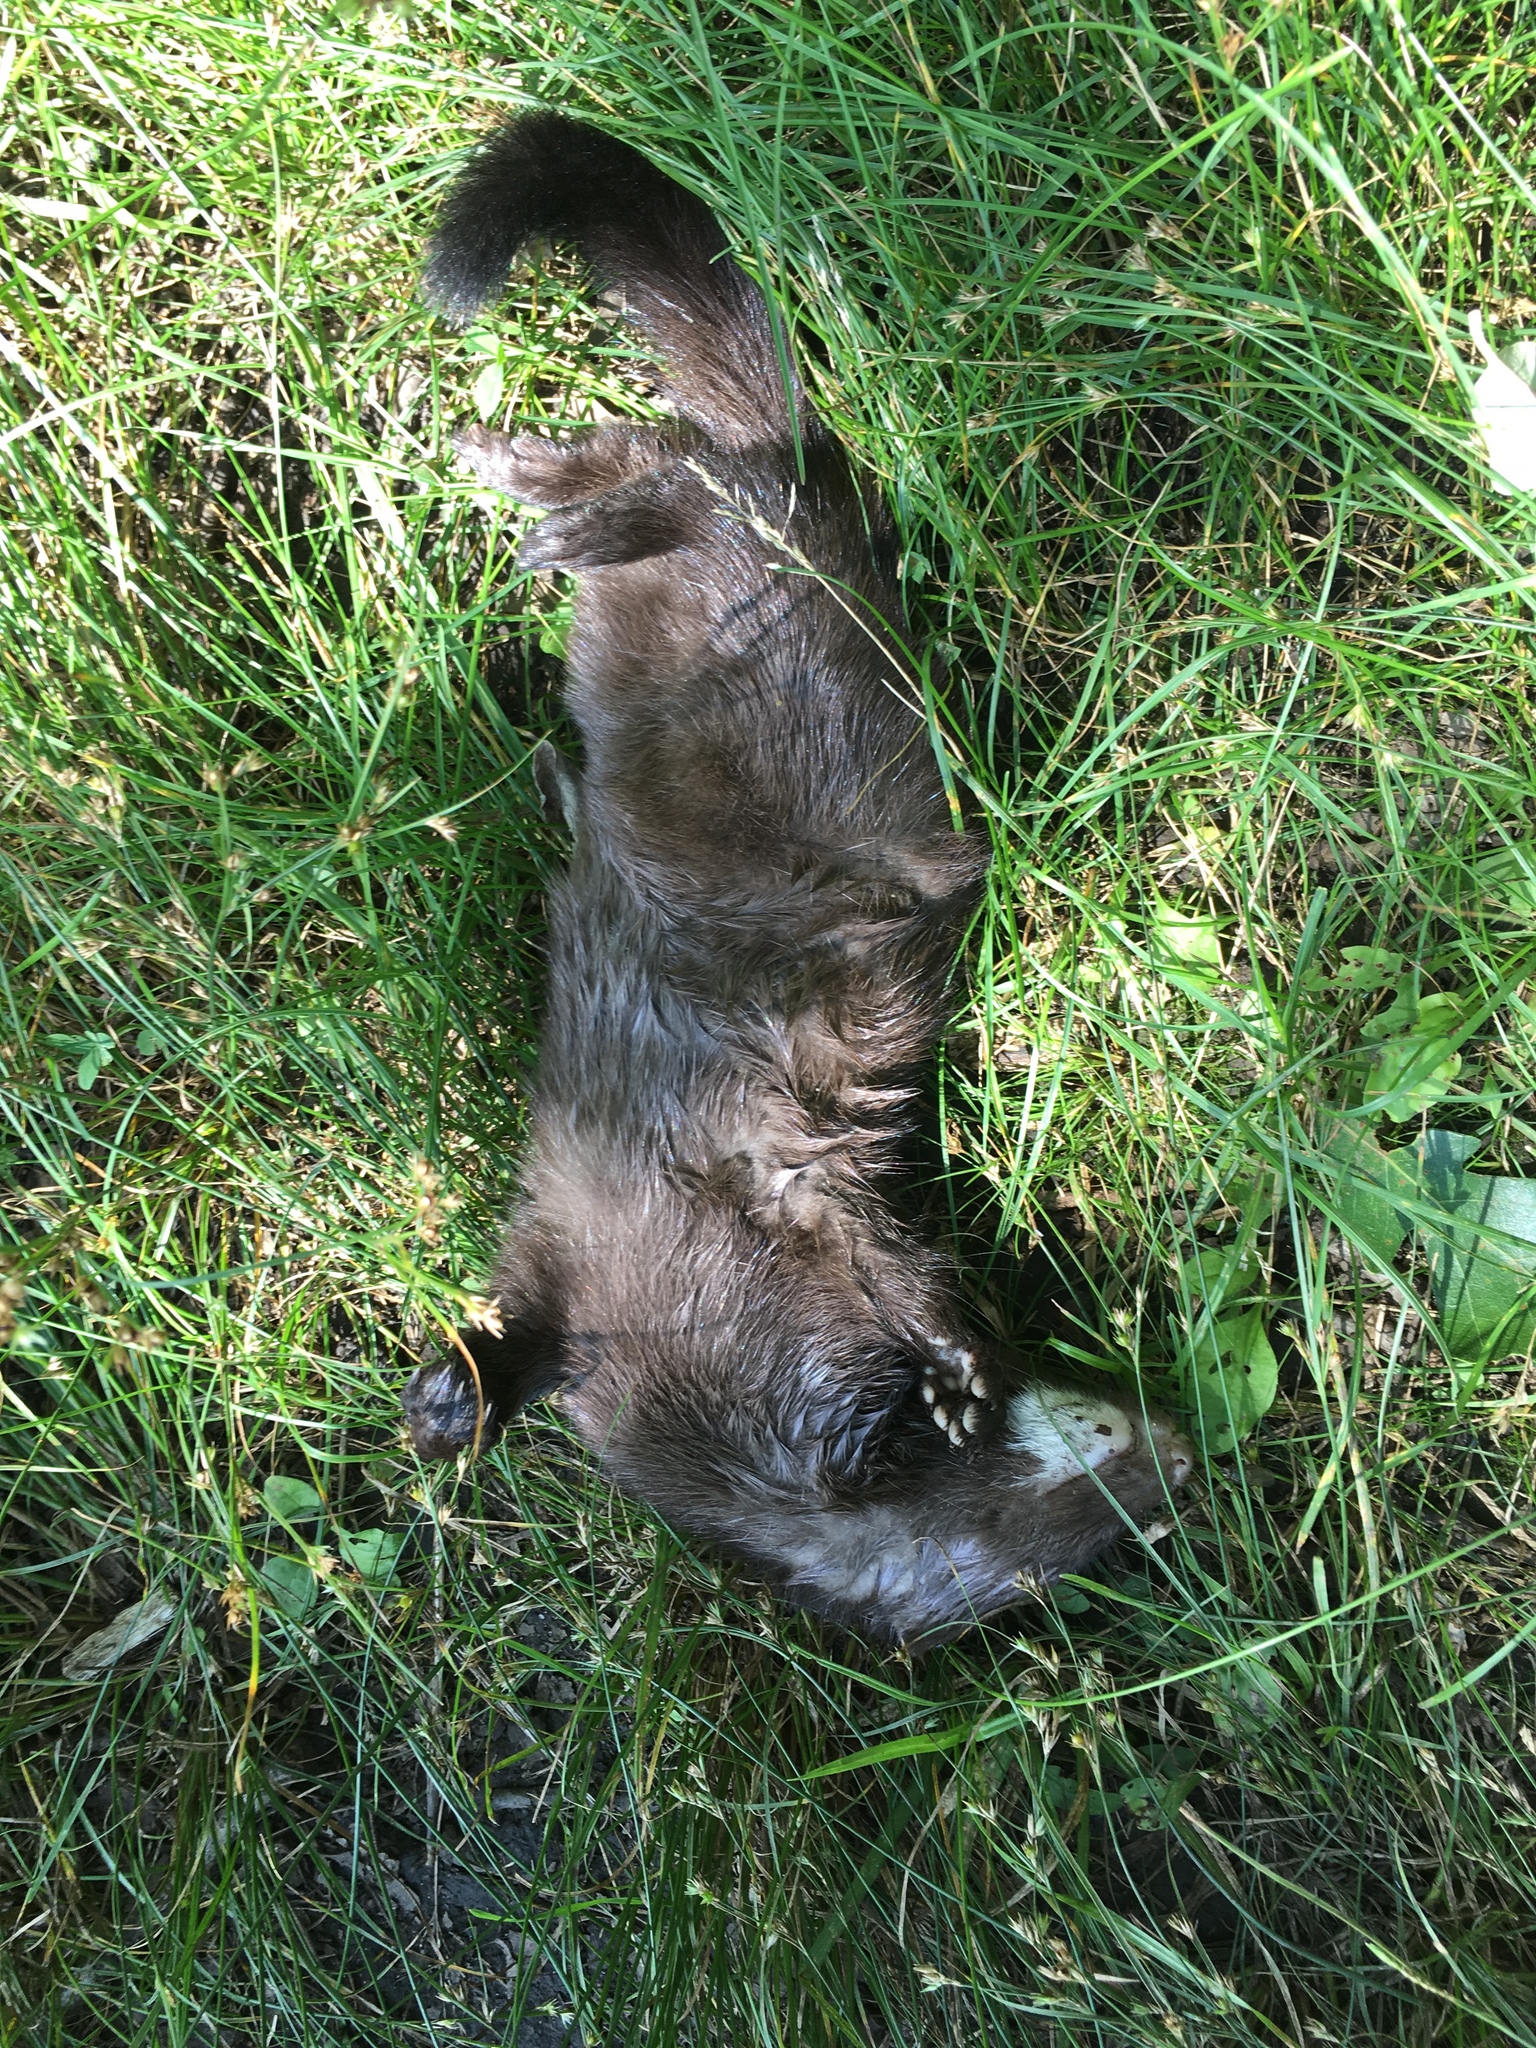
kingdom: Animalia
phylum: Chordata
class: Mammalia
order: Carnivora
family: Mustelidae
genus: Mustela
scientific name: Mustela
